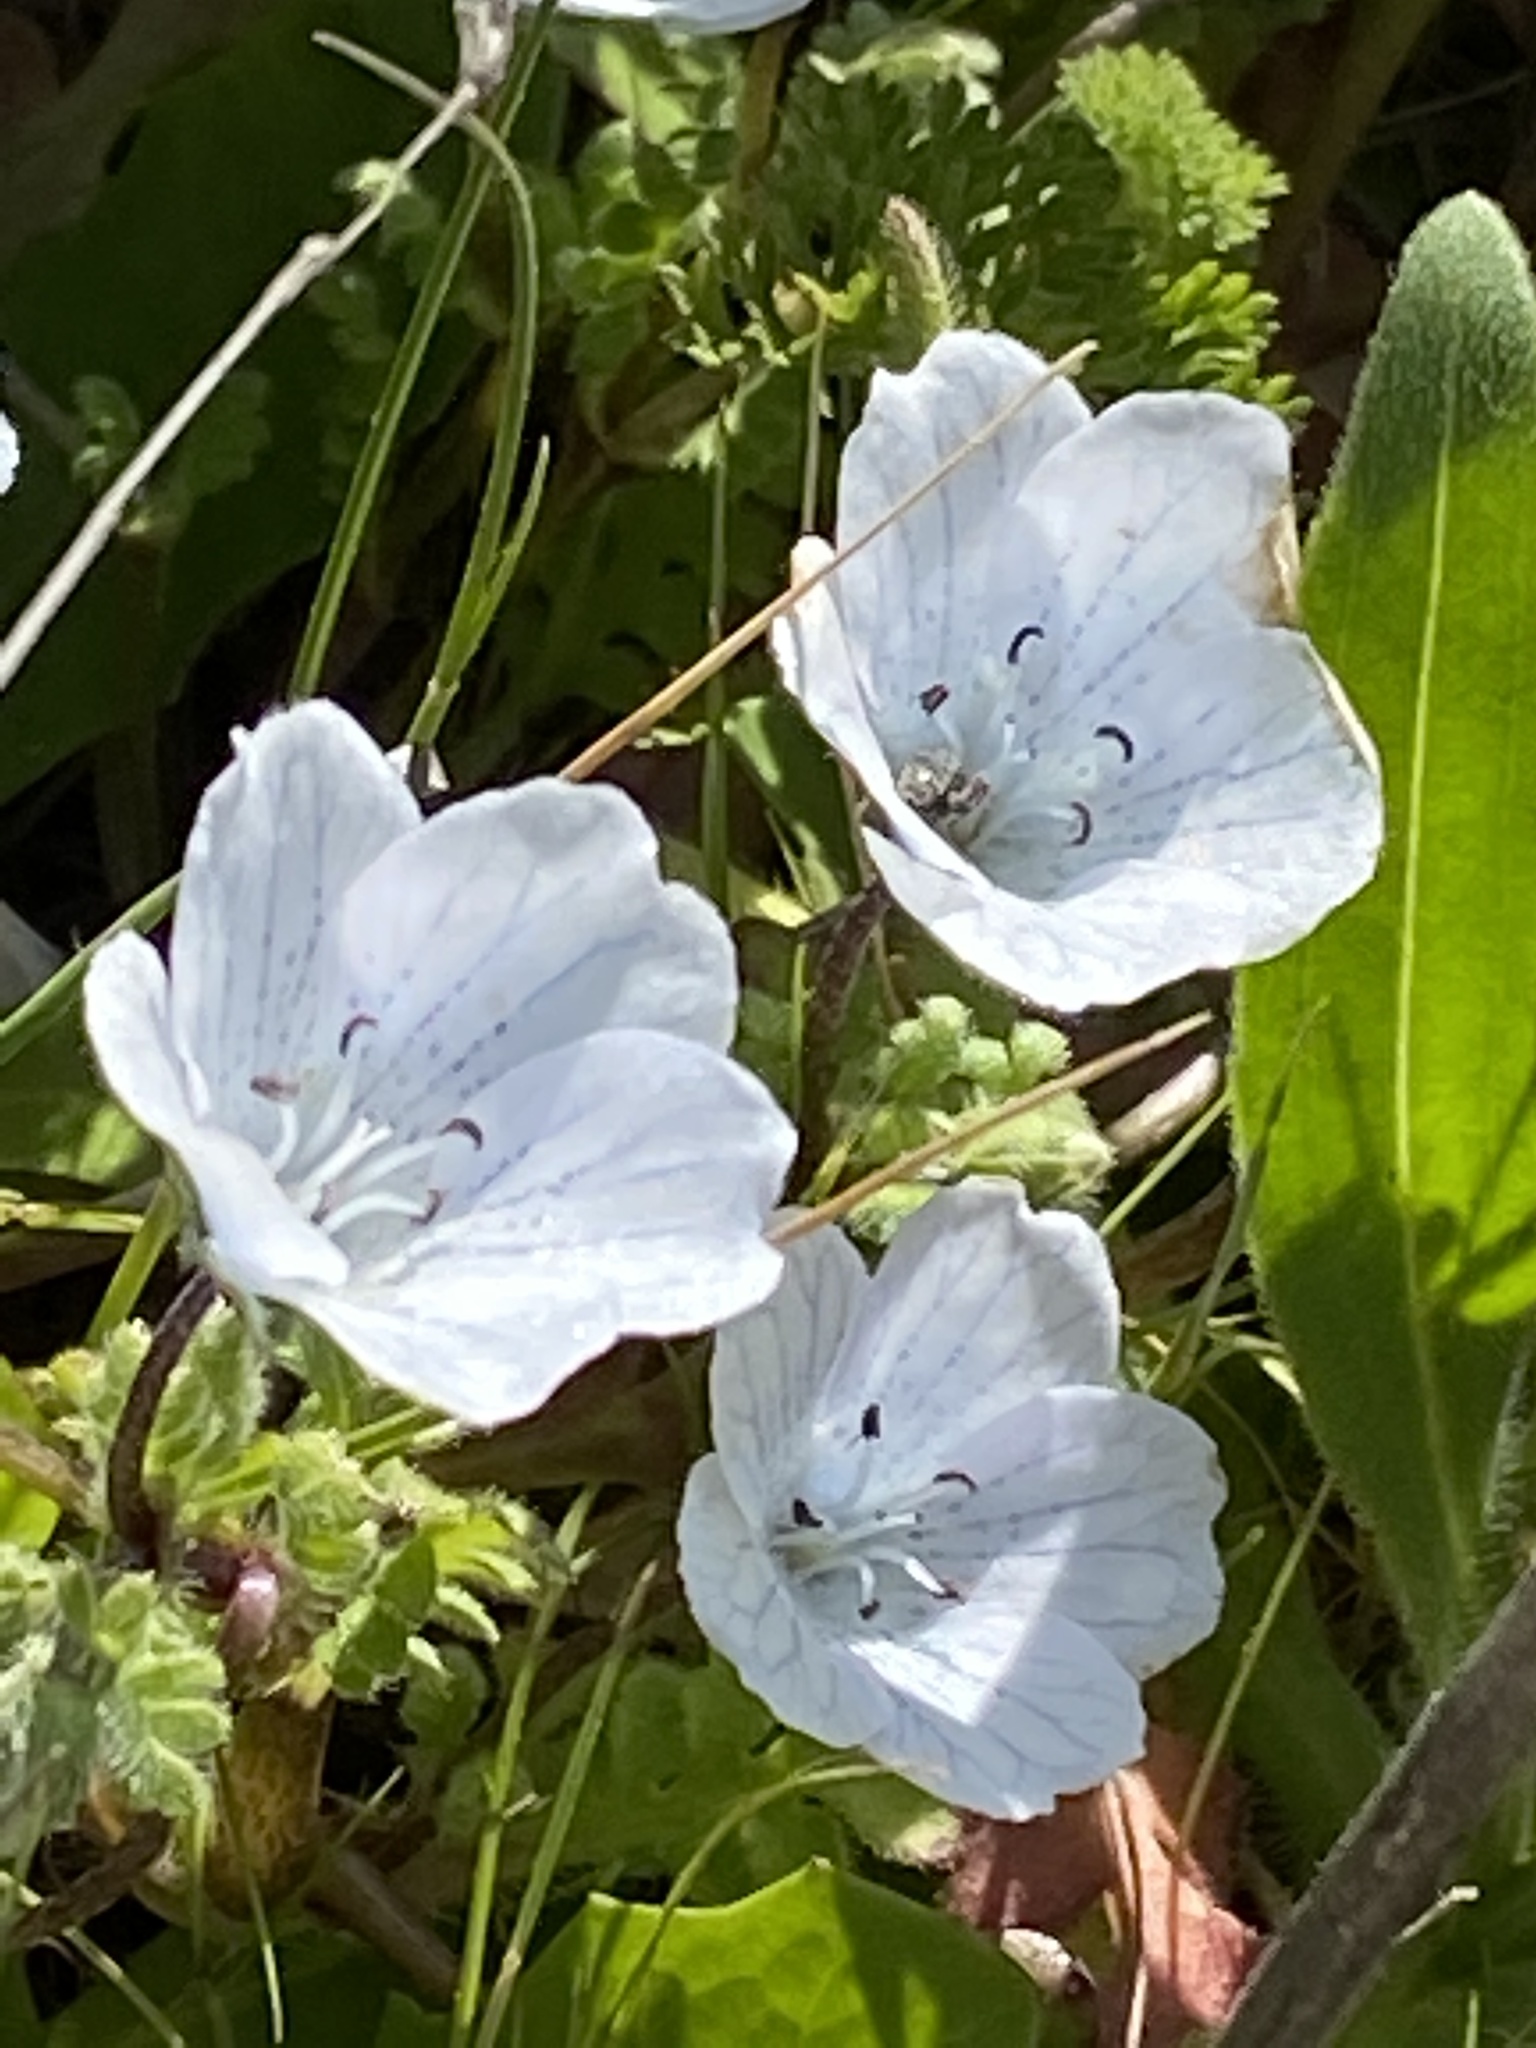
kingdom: Plantae
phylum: Tracheophyta
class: Magnoliopsida
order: Boraginales
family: Hydrophyllaceae
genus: Nemophila
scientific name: Nemophila menziesii
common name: Baby's-blue-eyes
